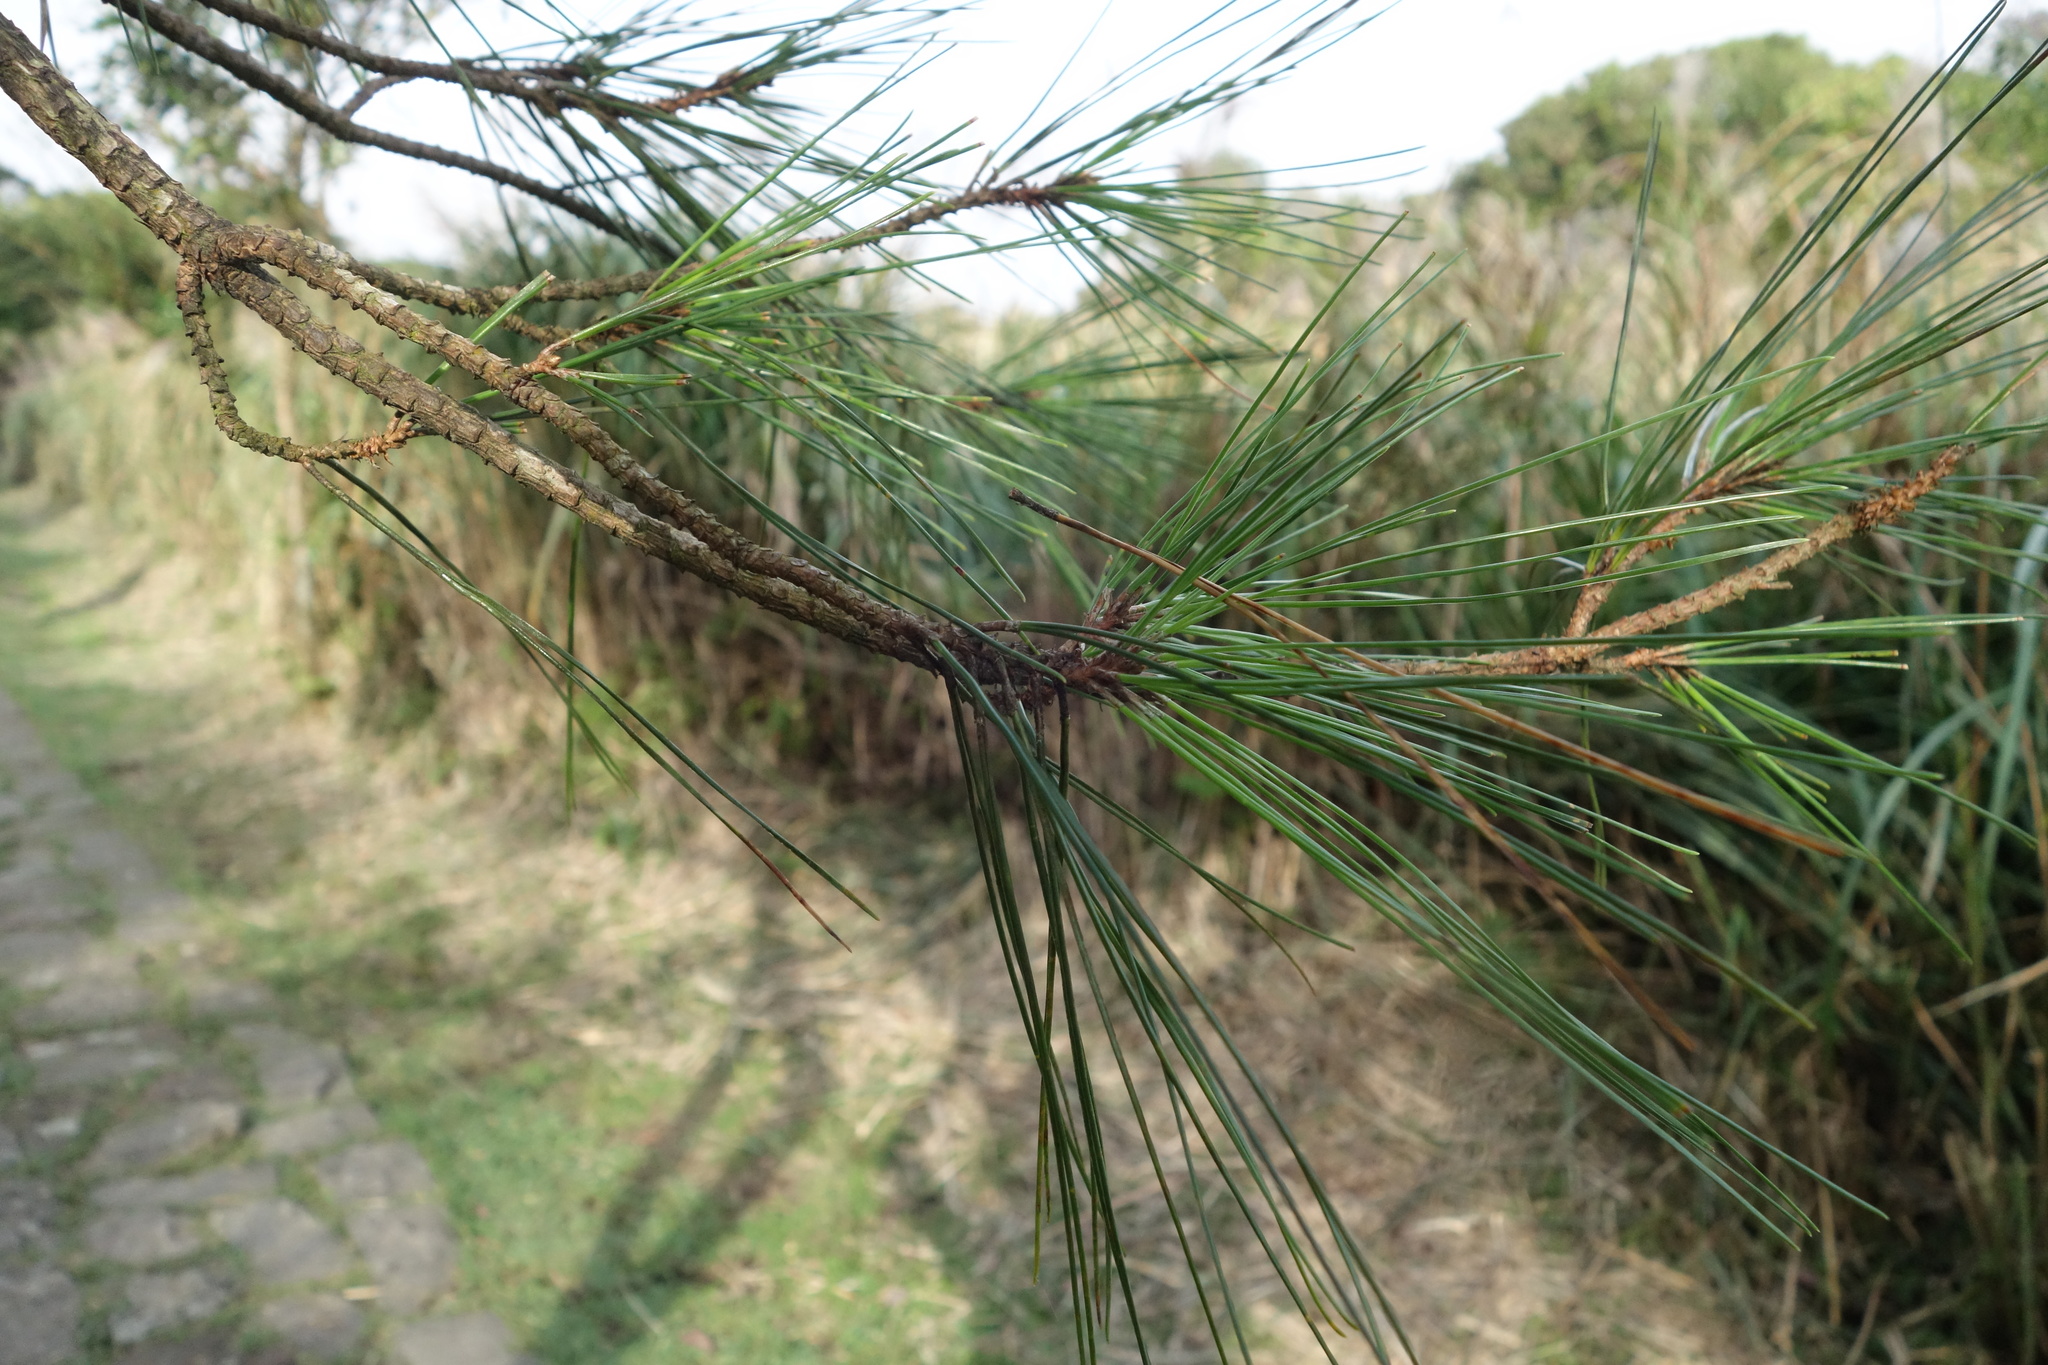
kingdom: Plantae
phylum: Tracheophyta
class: Pinopsida
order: Pinales
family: Pinaceae
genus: Pinus
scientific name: Pinus taiwanensis
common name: Formosa pine
